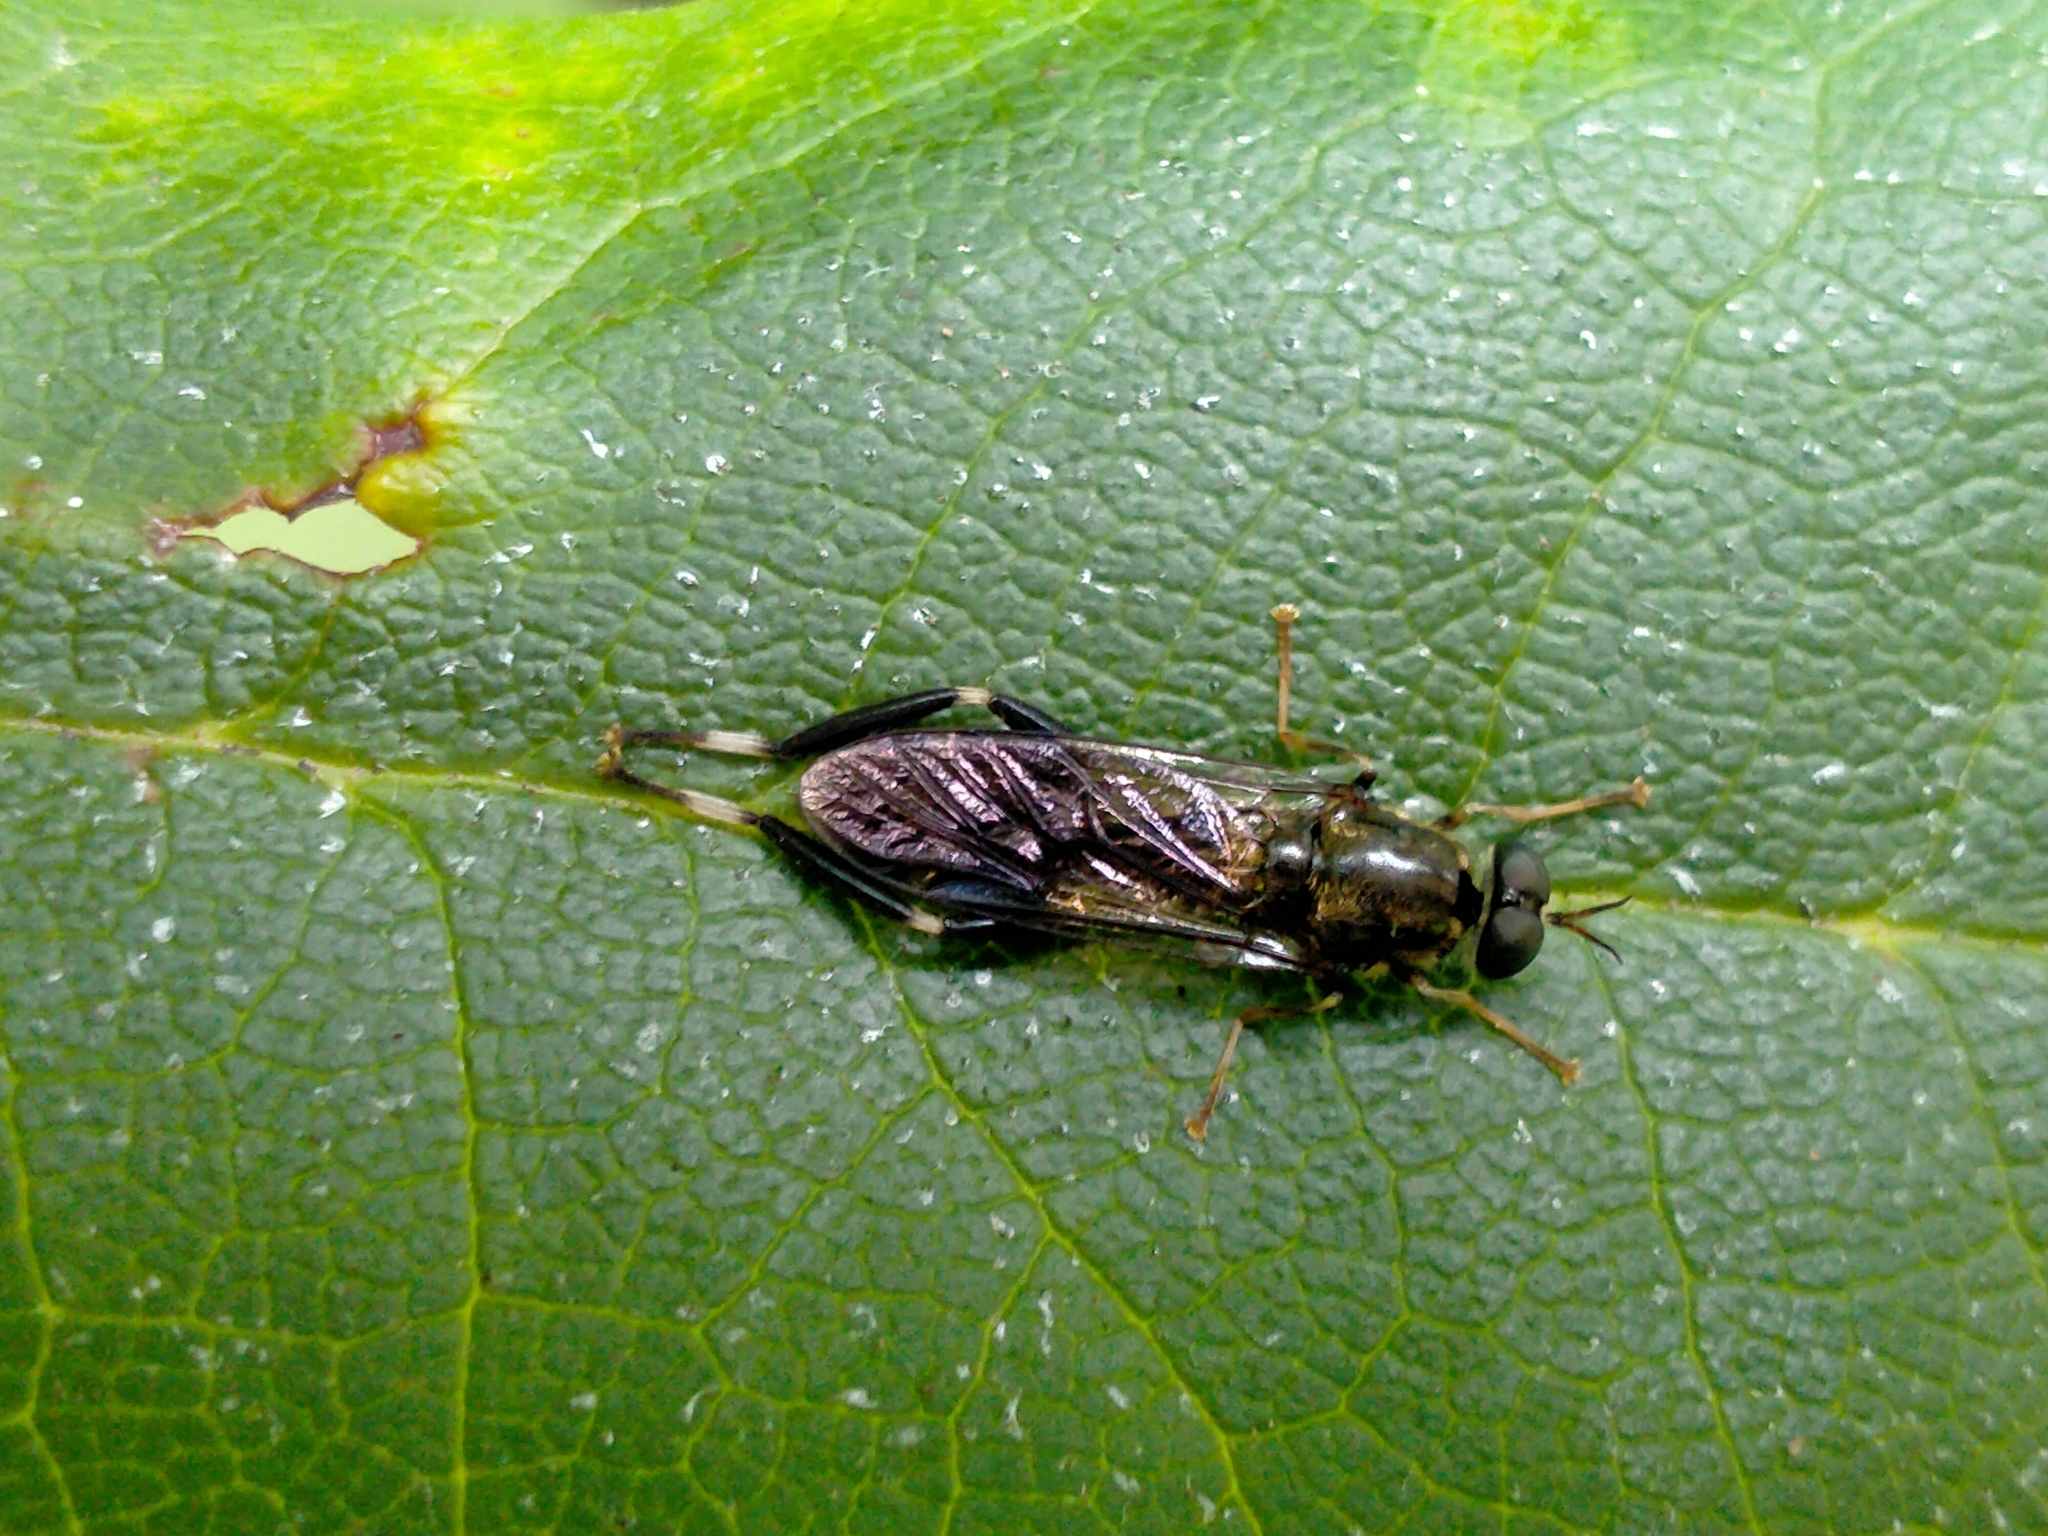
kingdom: Animalia
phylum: Arthropoda
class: Insecta
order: Diptera
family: Stratiomyidae
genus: Exaireta
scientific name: Exaireta spinigera
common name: Blue soldier fly
